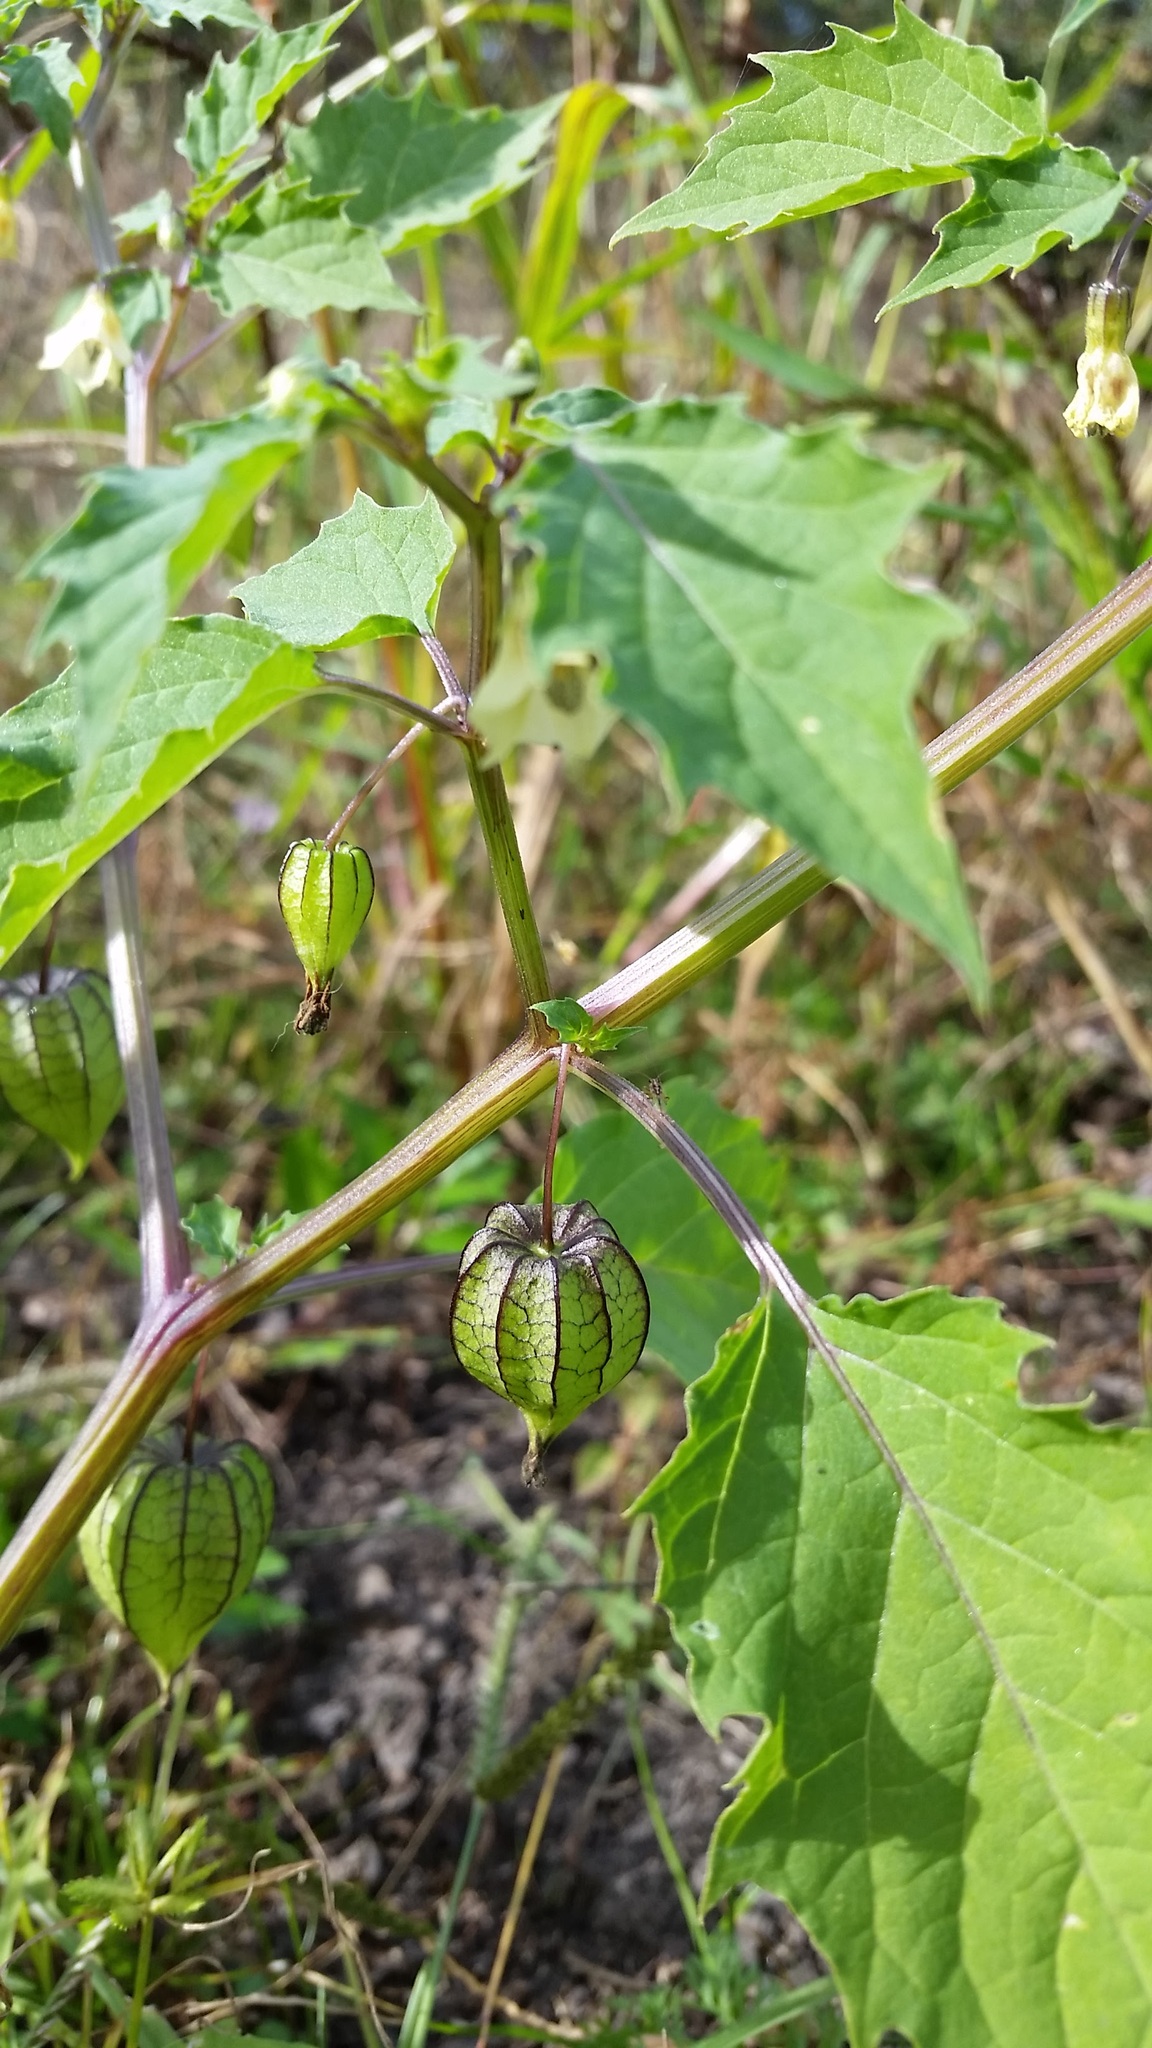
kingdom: Plantae
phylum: Tracheophyta
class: Magnoliopsida
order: Solanales
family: Solanaceae
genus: Physalis
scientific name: Physalis angulata
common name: Angular winter-cherry
